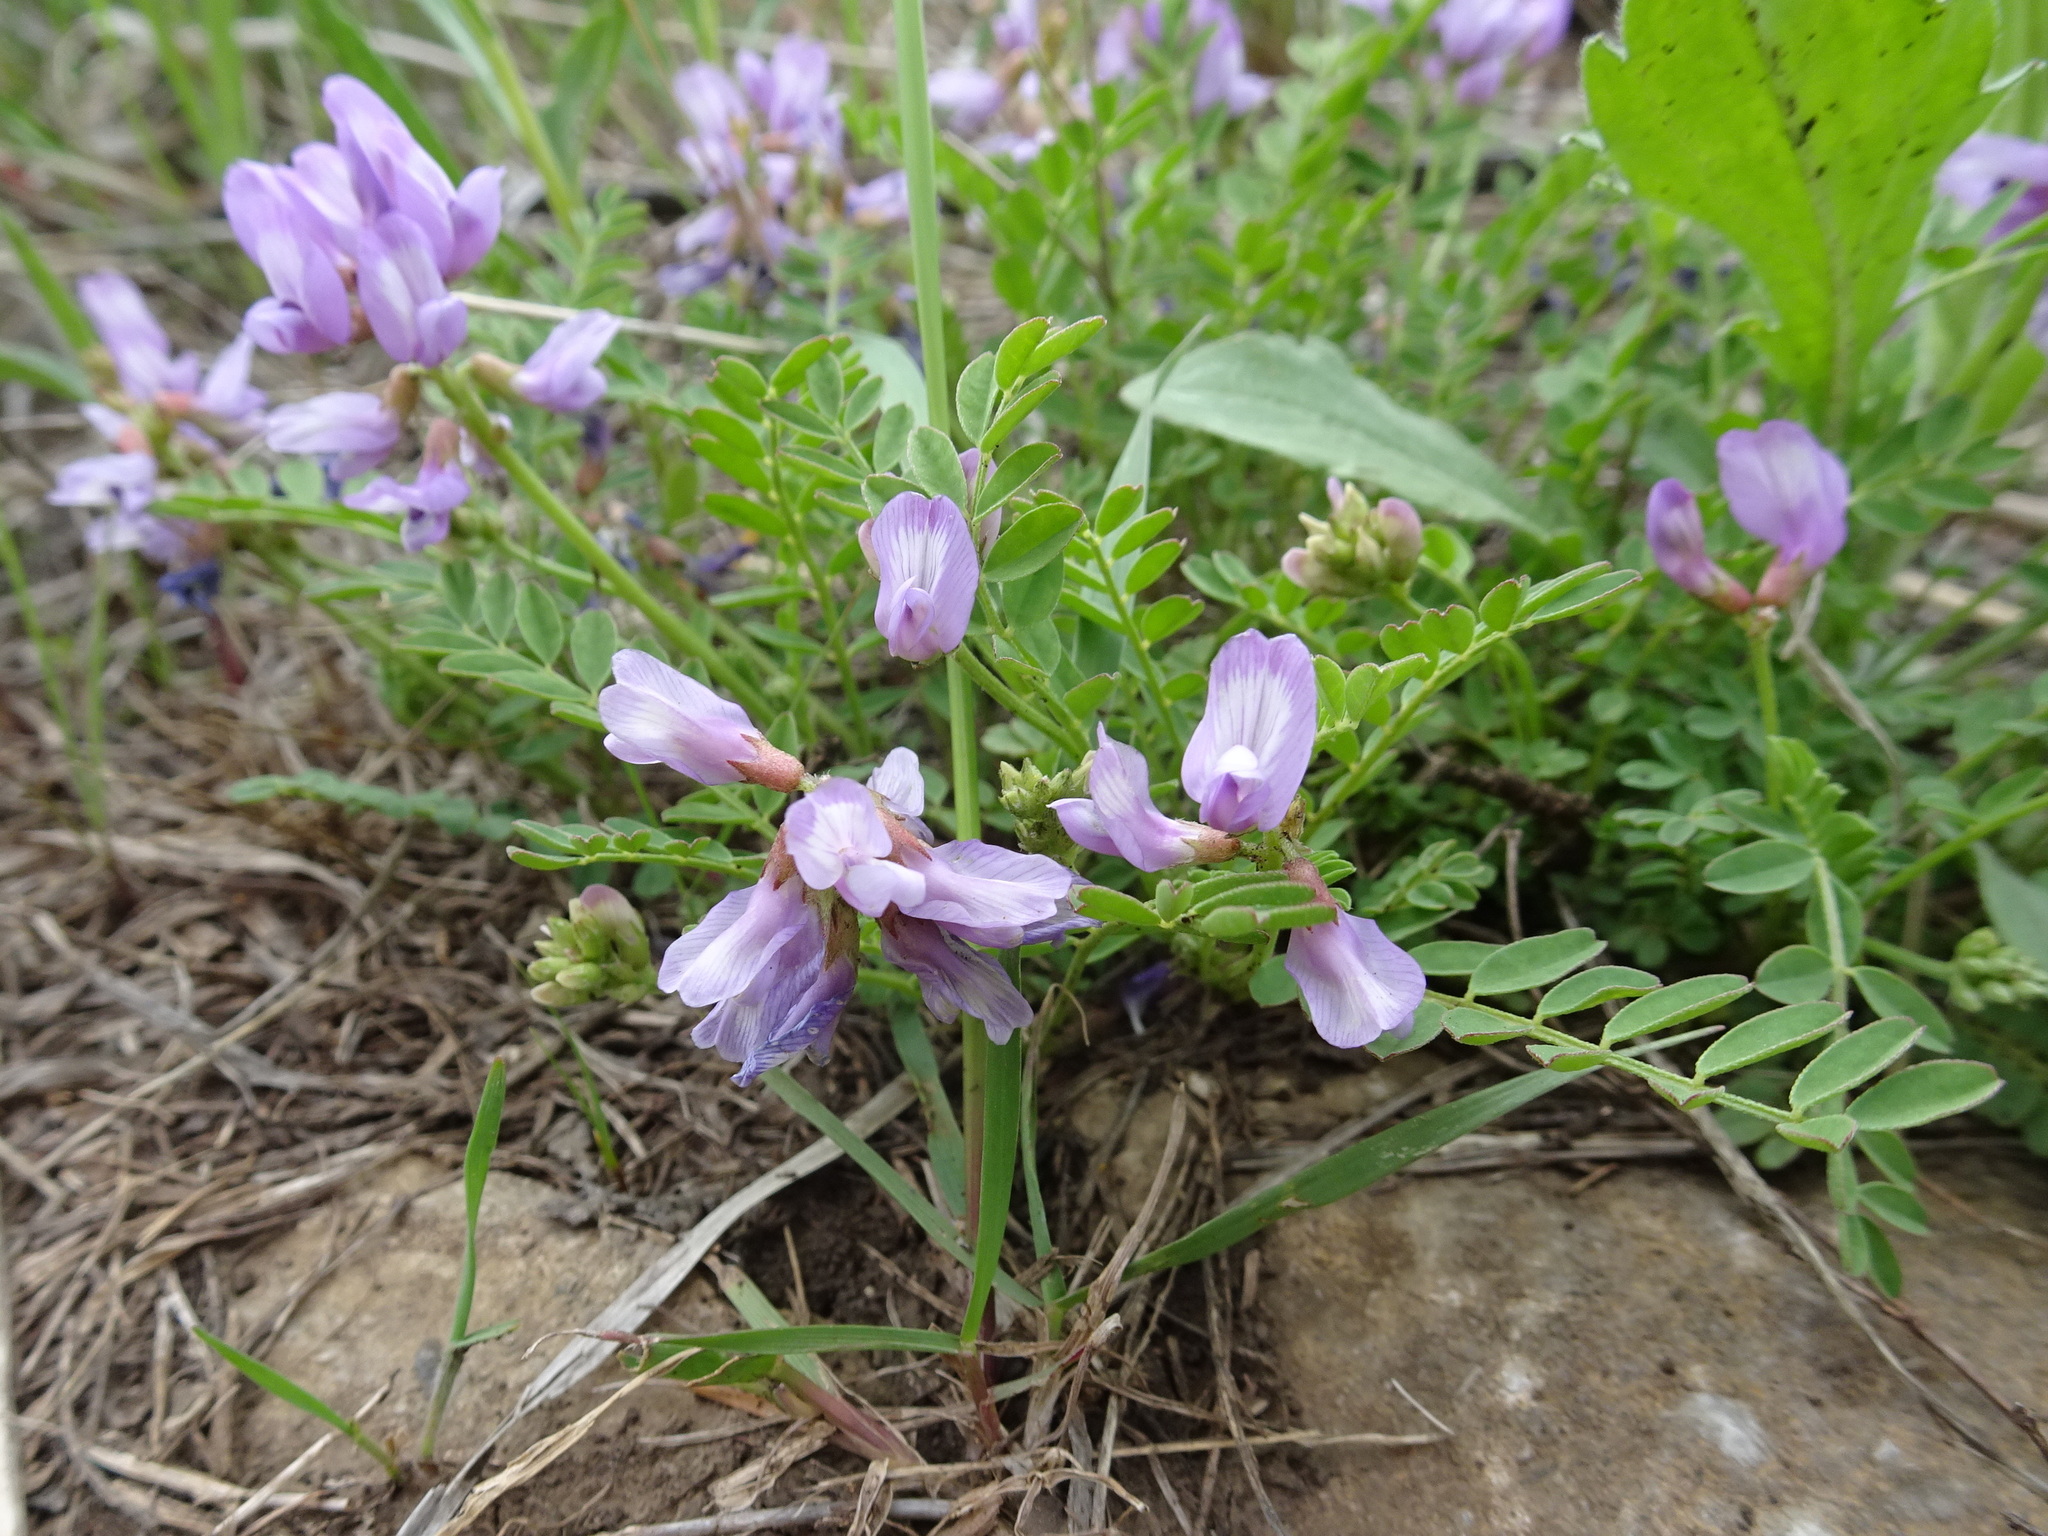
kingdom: Plantae
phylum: Tracheophyta
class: Magnoliopsida
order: Fabales
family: Fabaceae
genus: Astragalus
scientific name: Astragalus distortus
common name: Ozark milk-vetch
